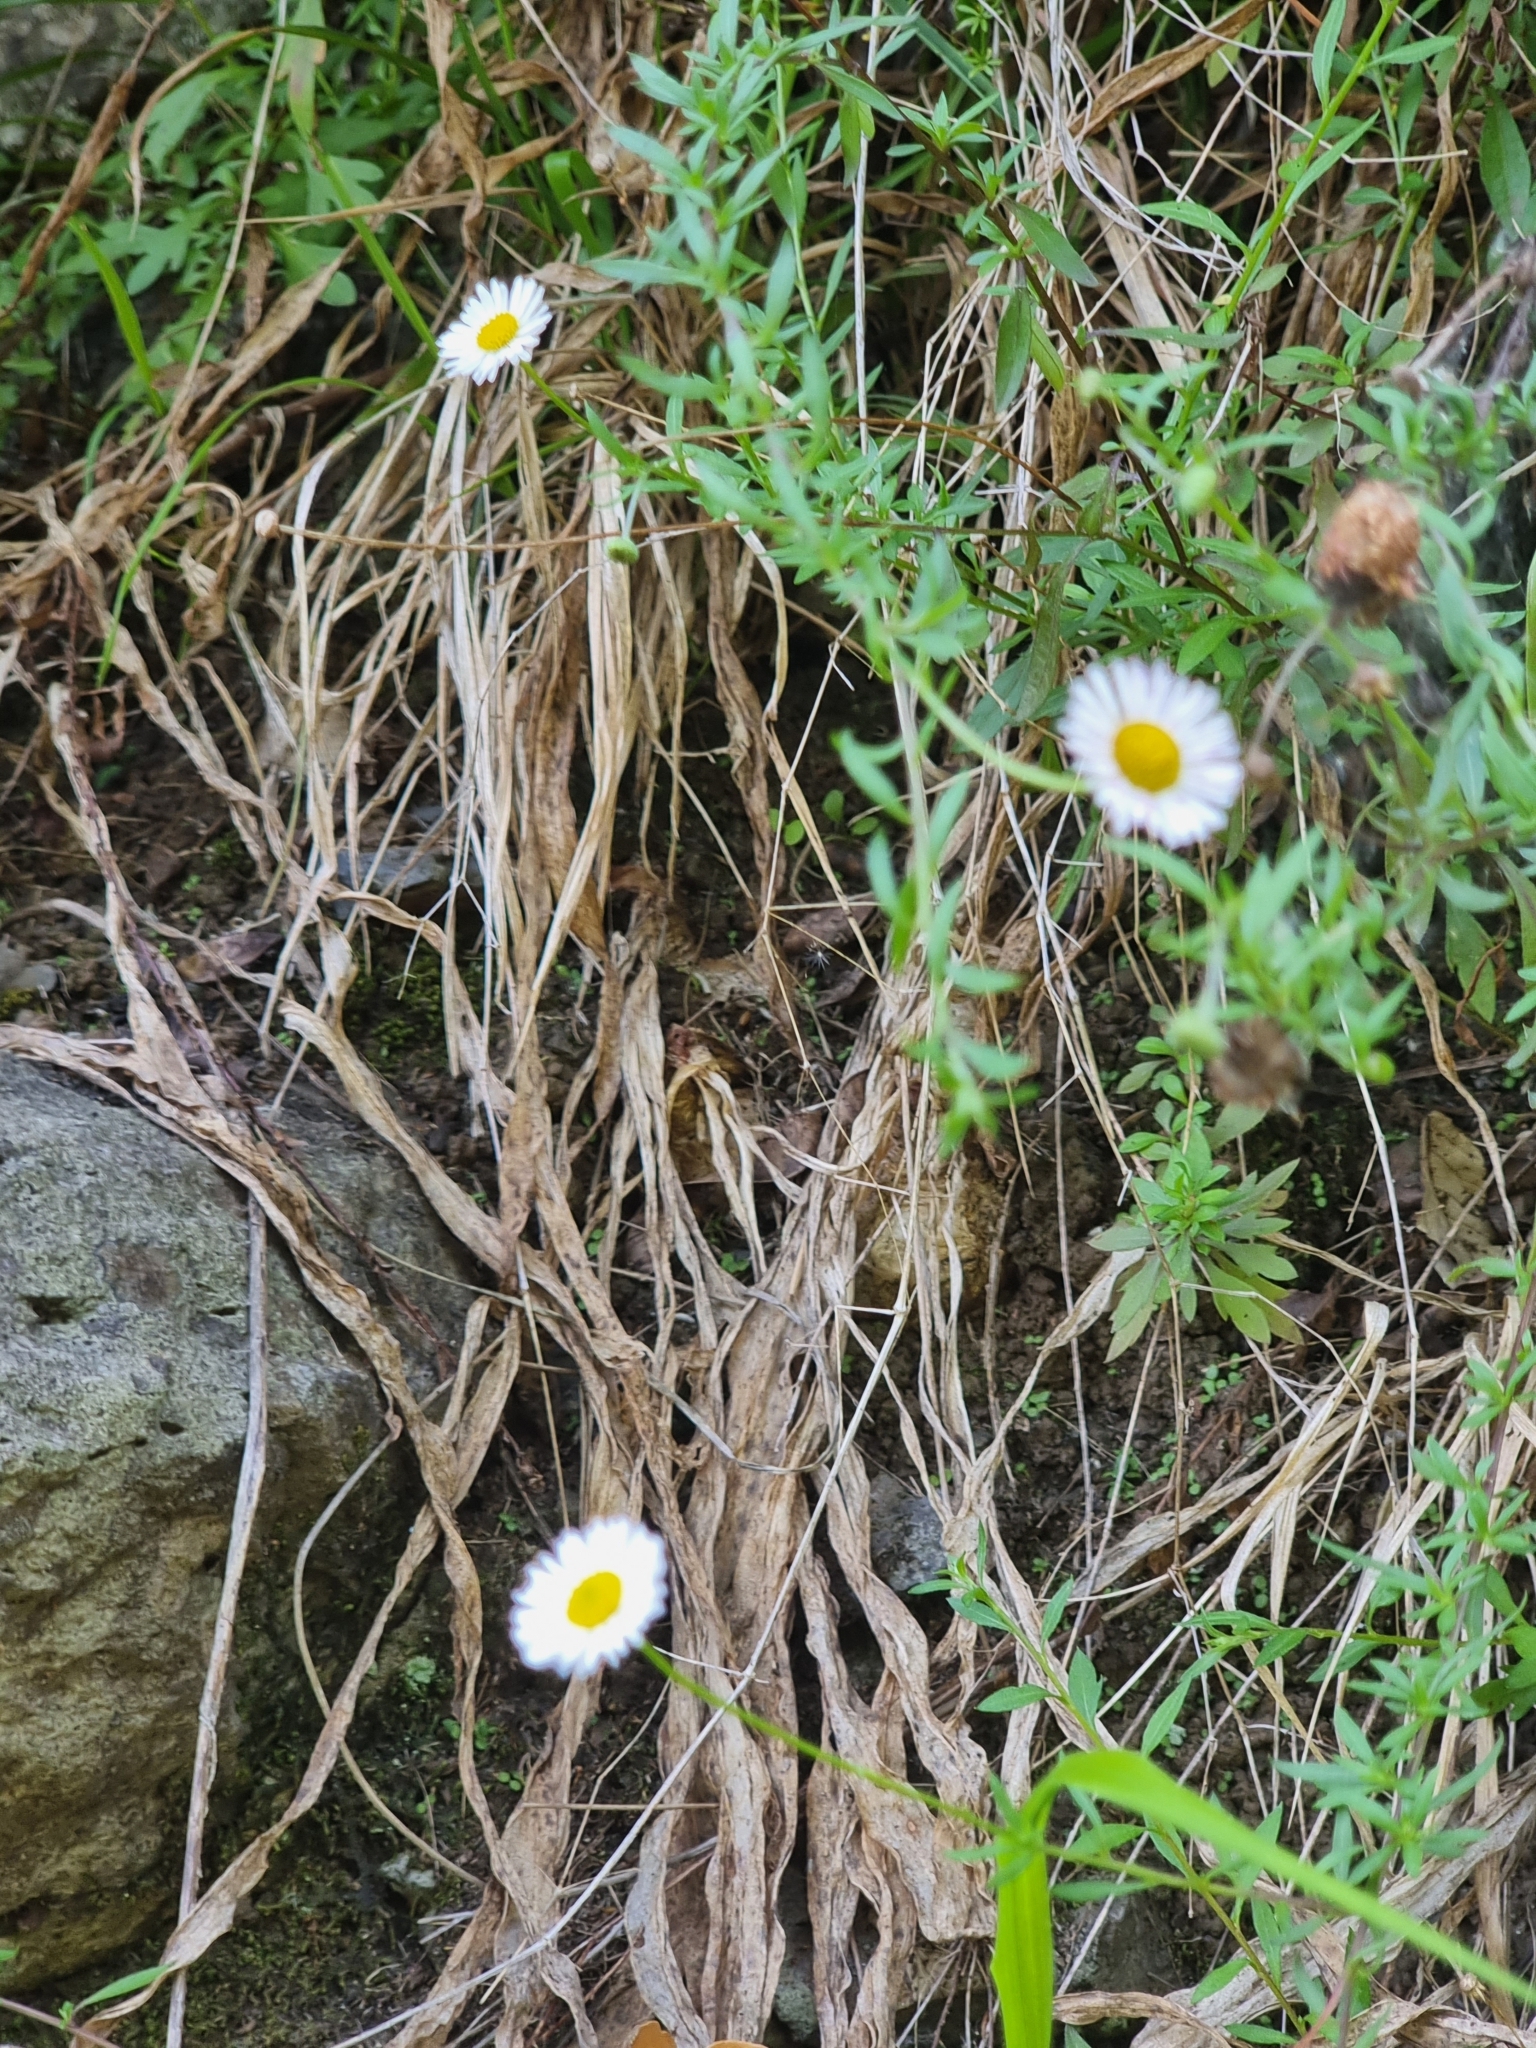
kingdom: Plantae
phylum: Tracheophyta
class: Magnoliopsida
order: Asterales
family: Asteraceae
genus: Erigeron
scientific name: Erigeron karvinskianus
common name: Mexican fleabane
